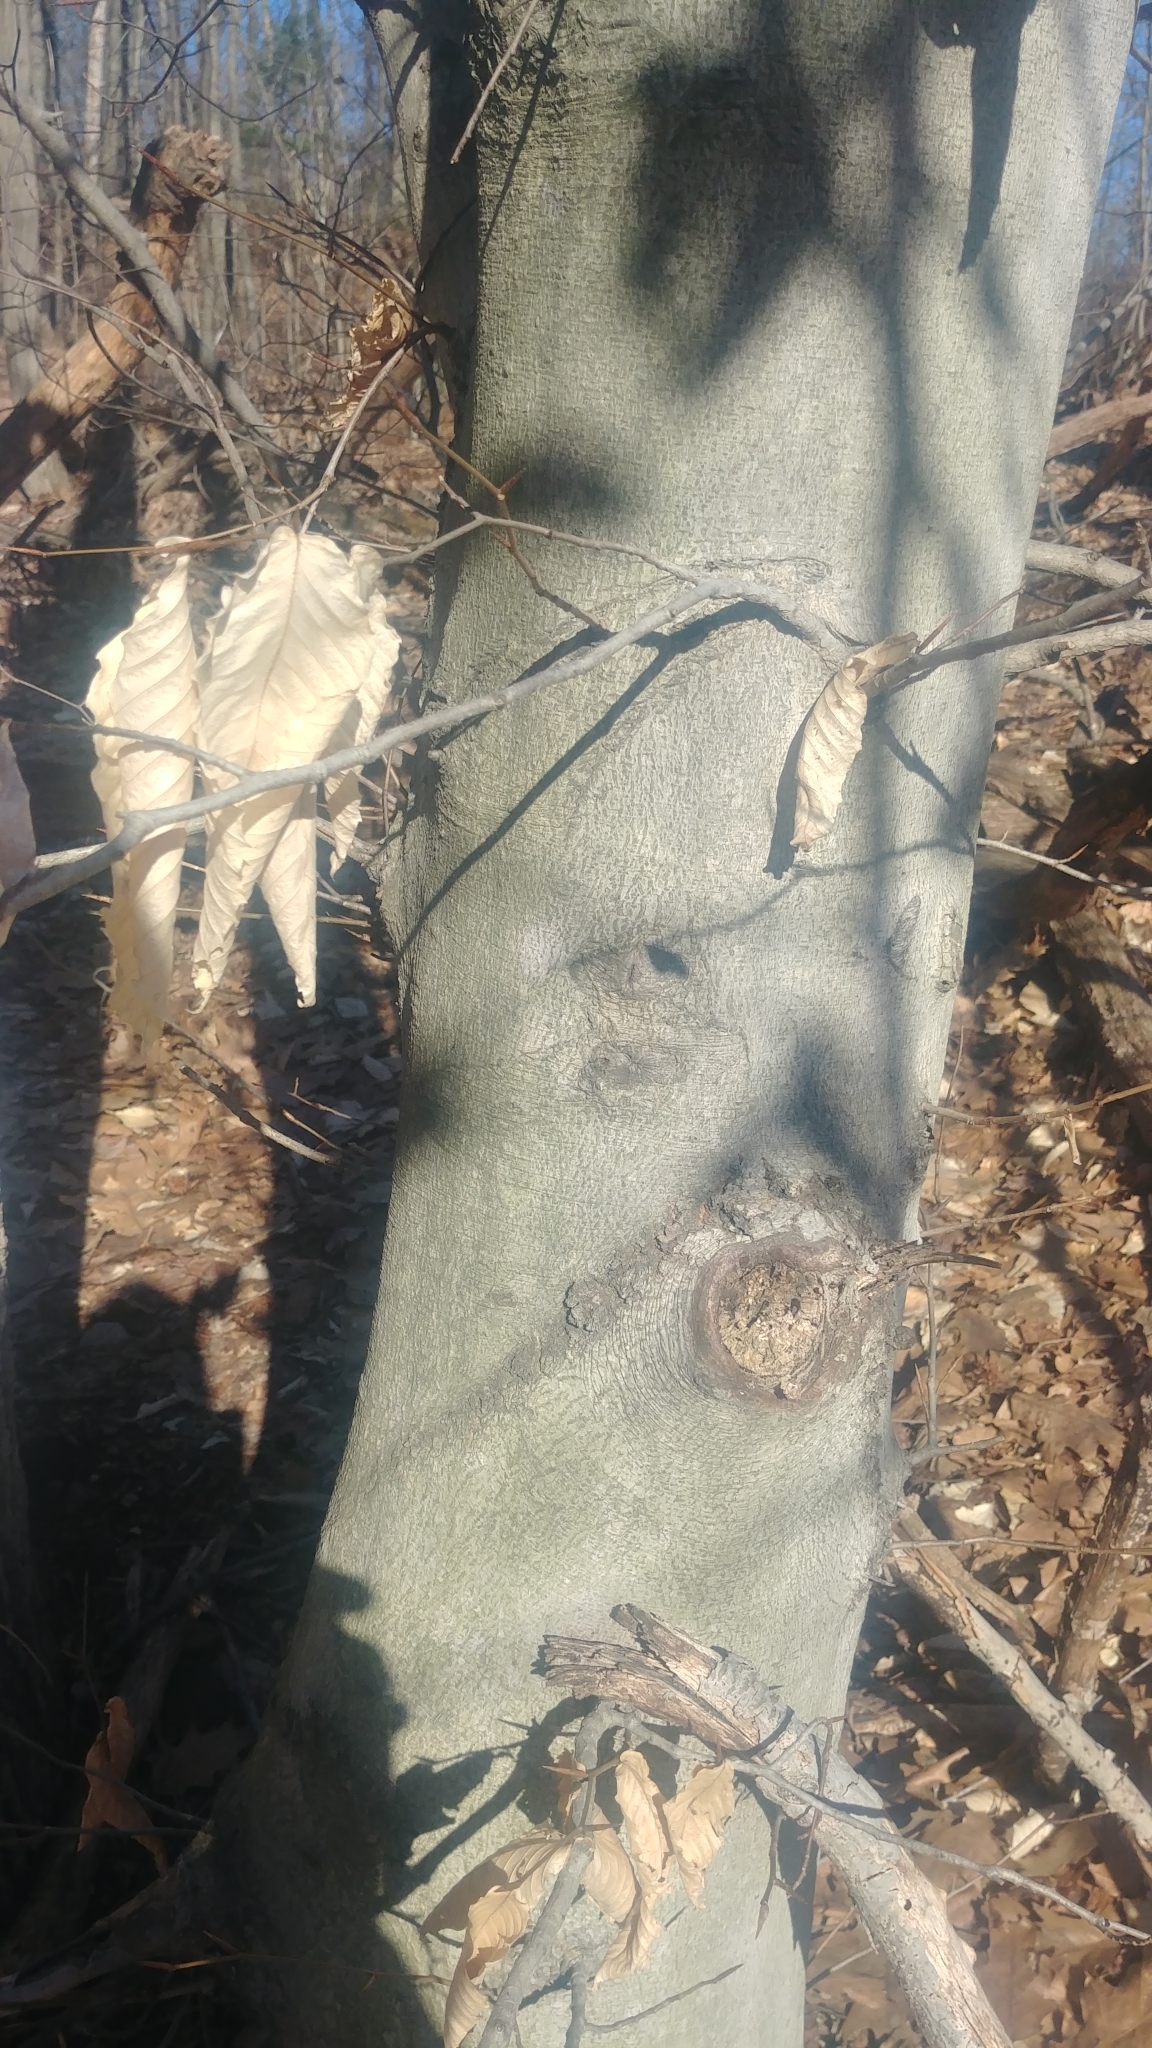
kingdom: Plantae
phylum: Tracheophyta
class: Magnoliopsida
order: Fagales
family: Fagaceae
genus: Fagus
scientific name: Fagus grandifolia
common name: American beech
